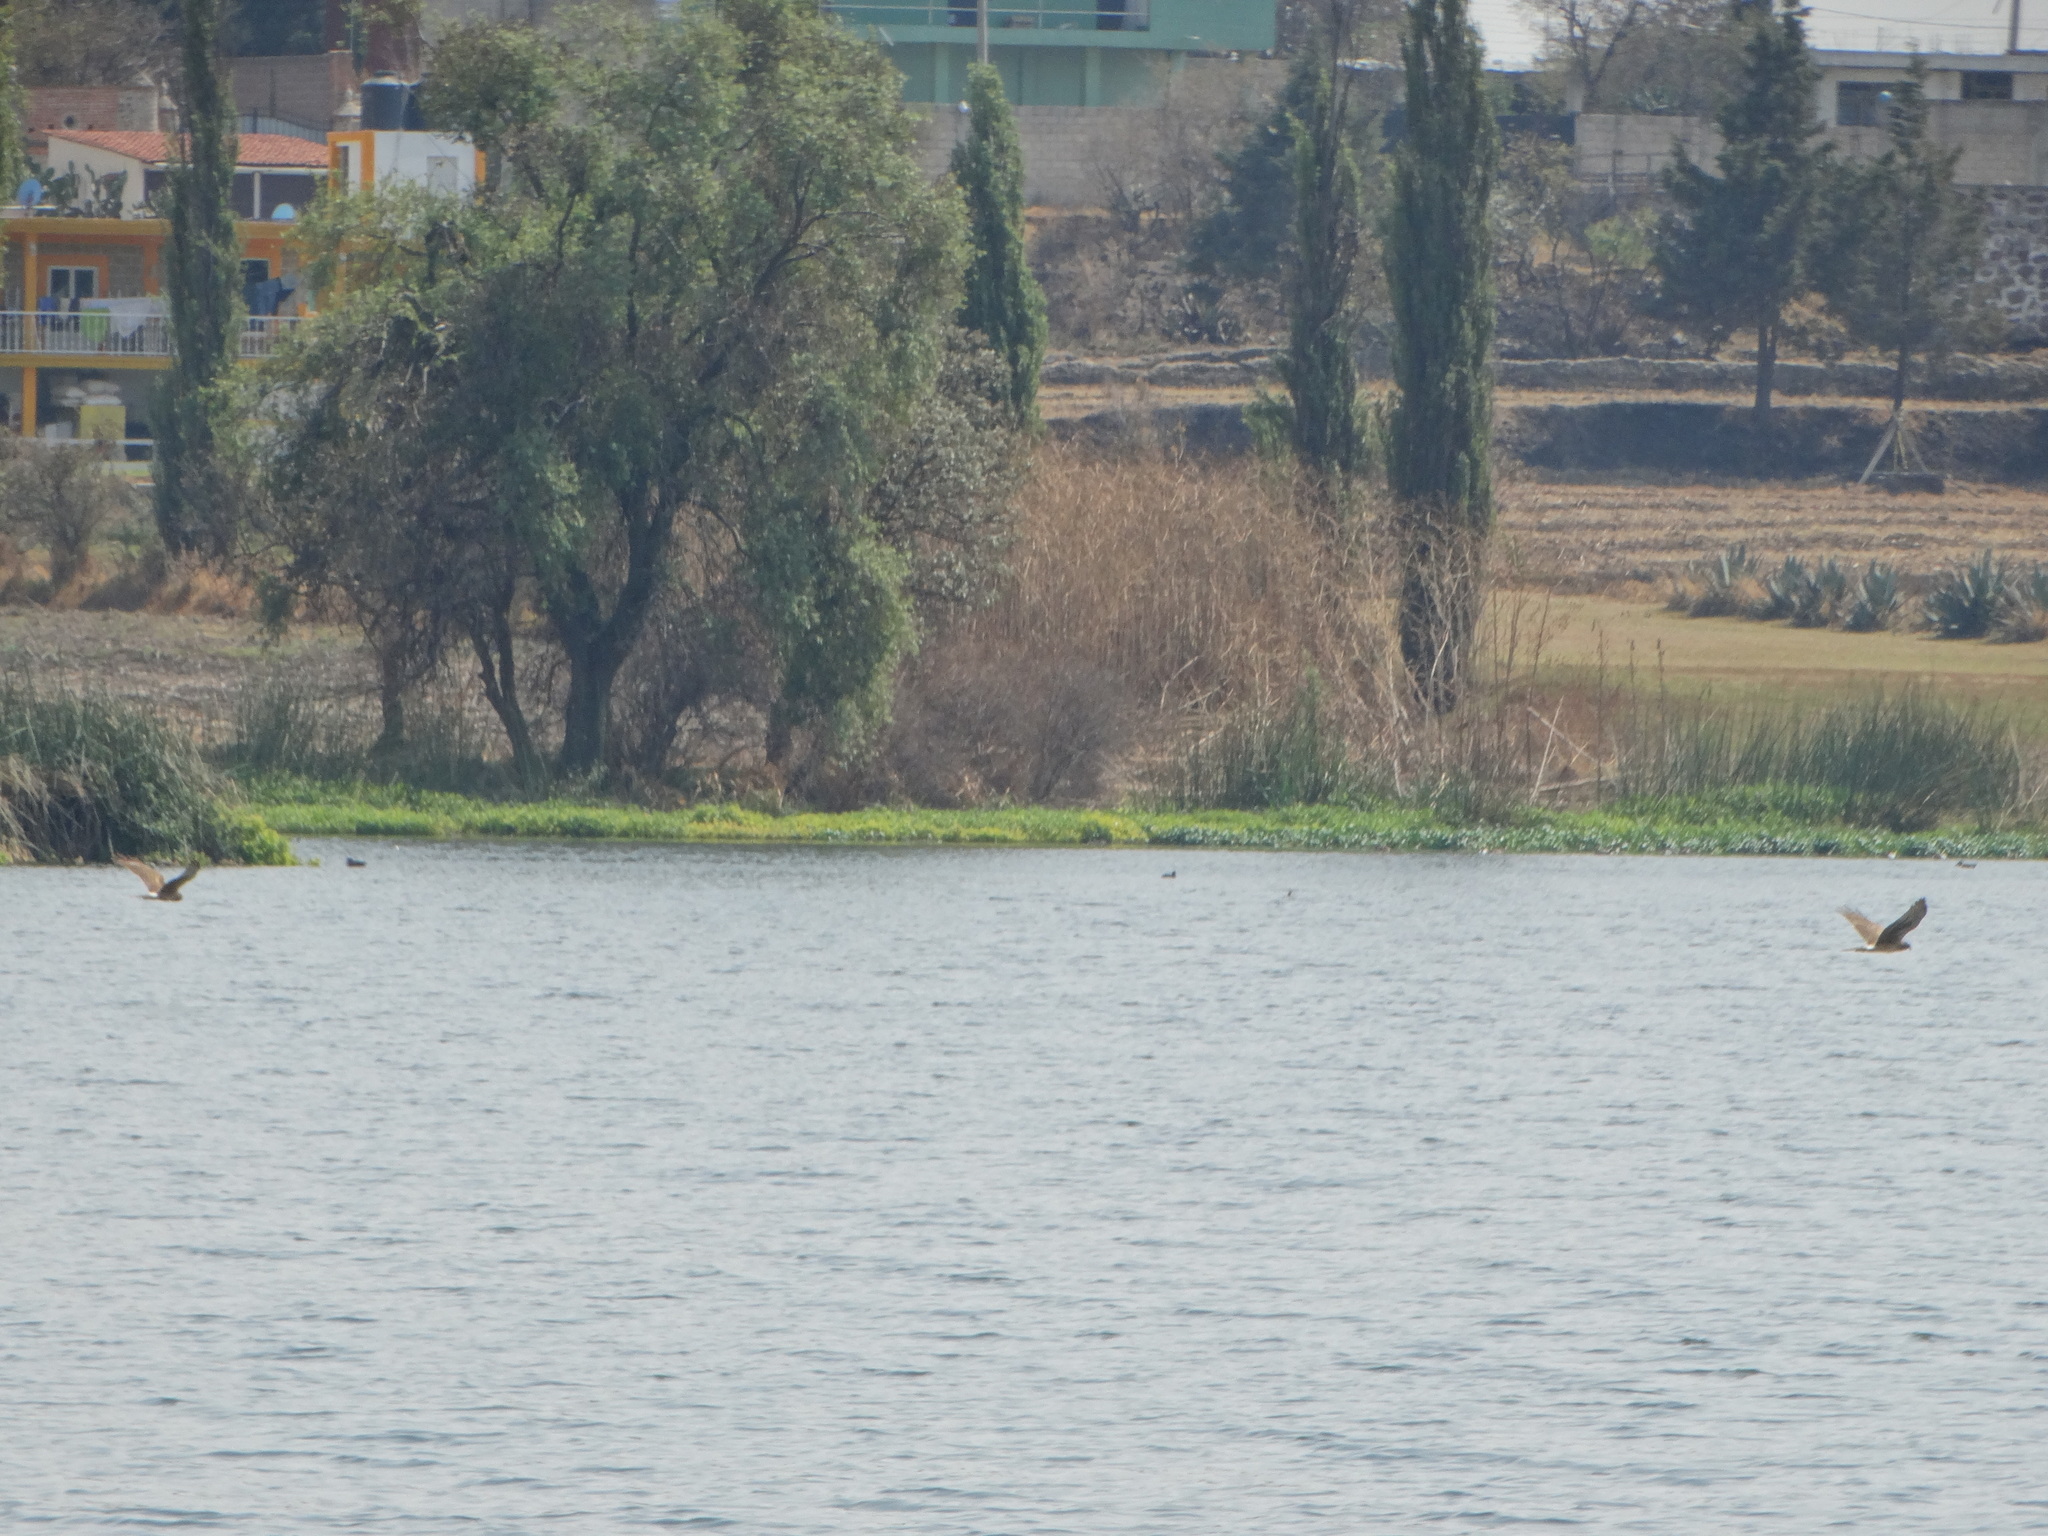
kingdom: Animalia
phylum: Chordata
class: Aves
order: Accipitriformes
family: Accipitridae
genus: Circus
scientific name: Circus cyaneus
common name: Hen harrier
